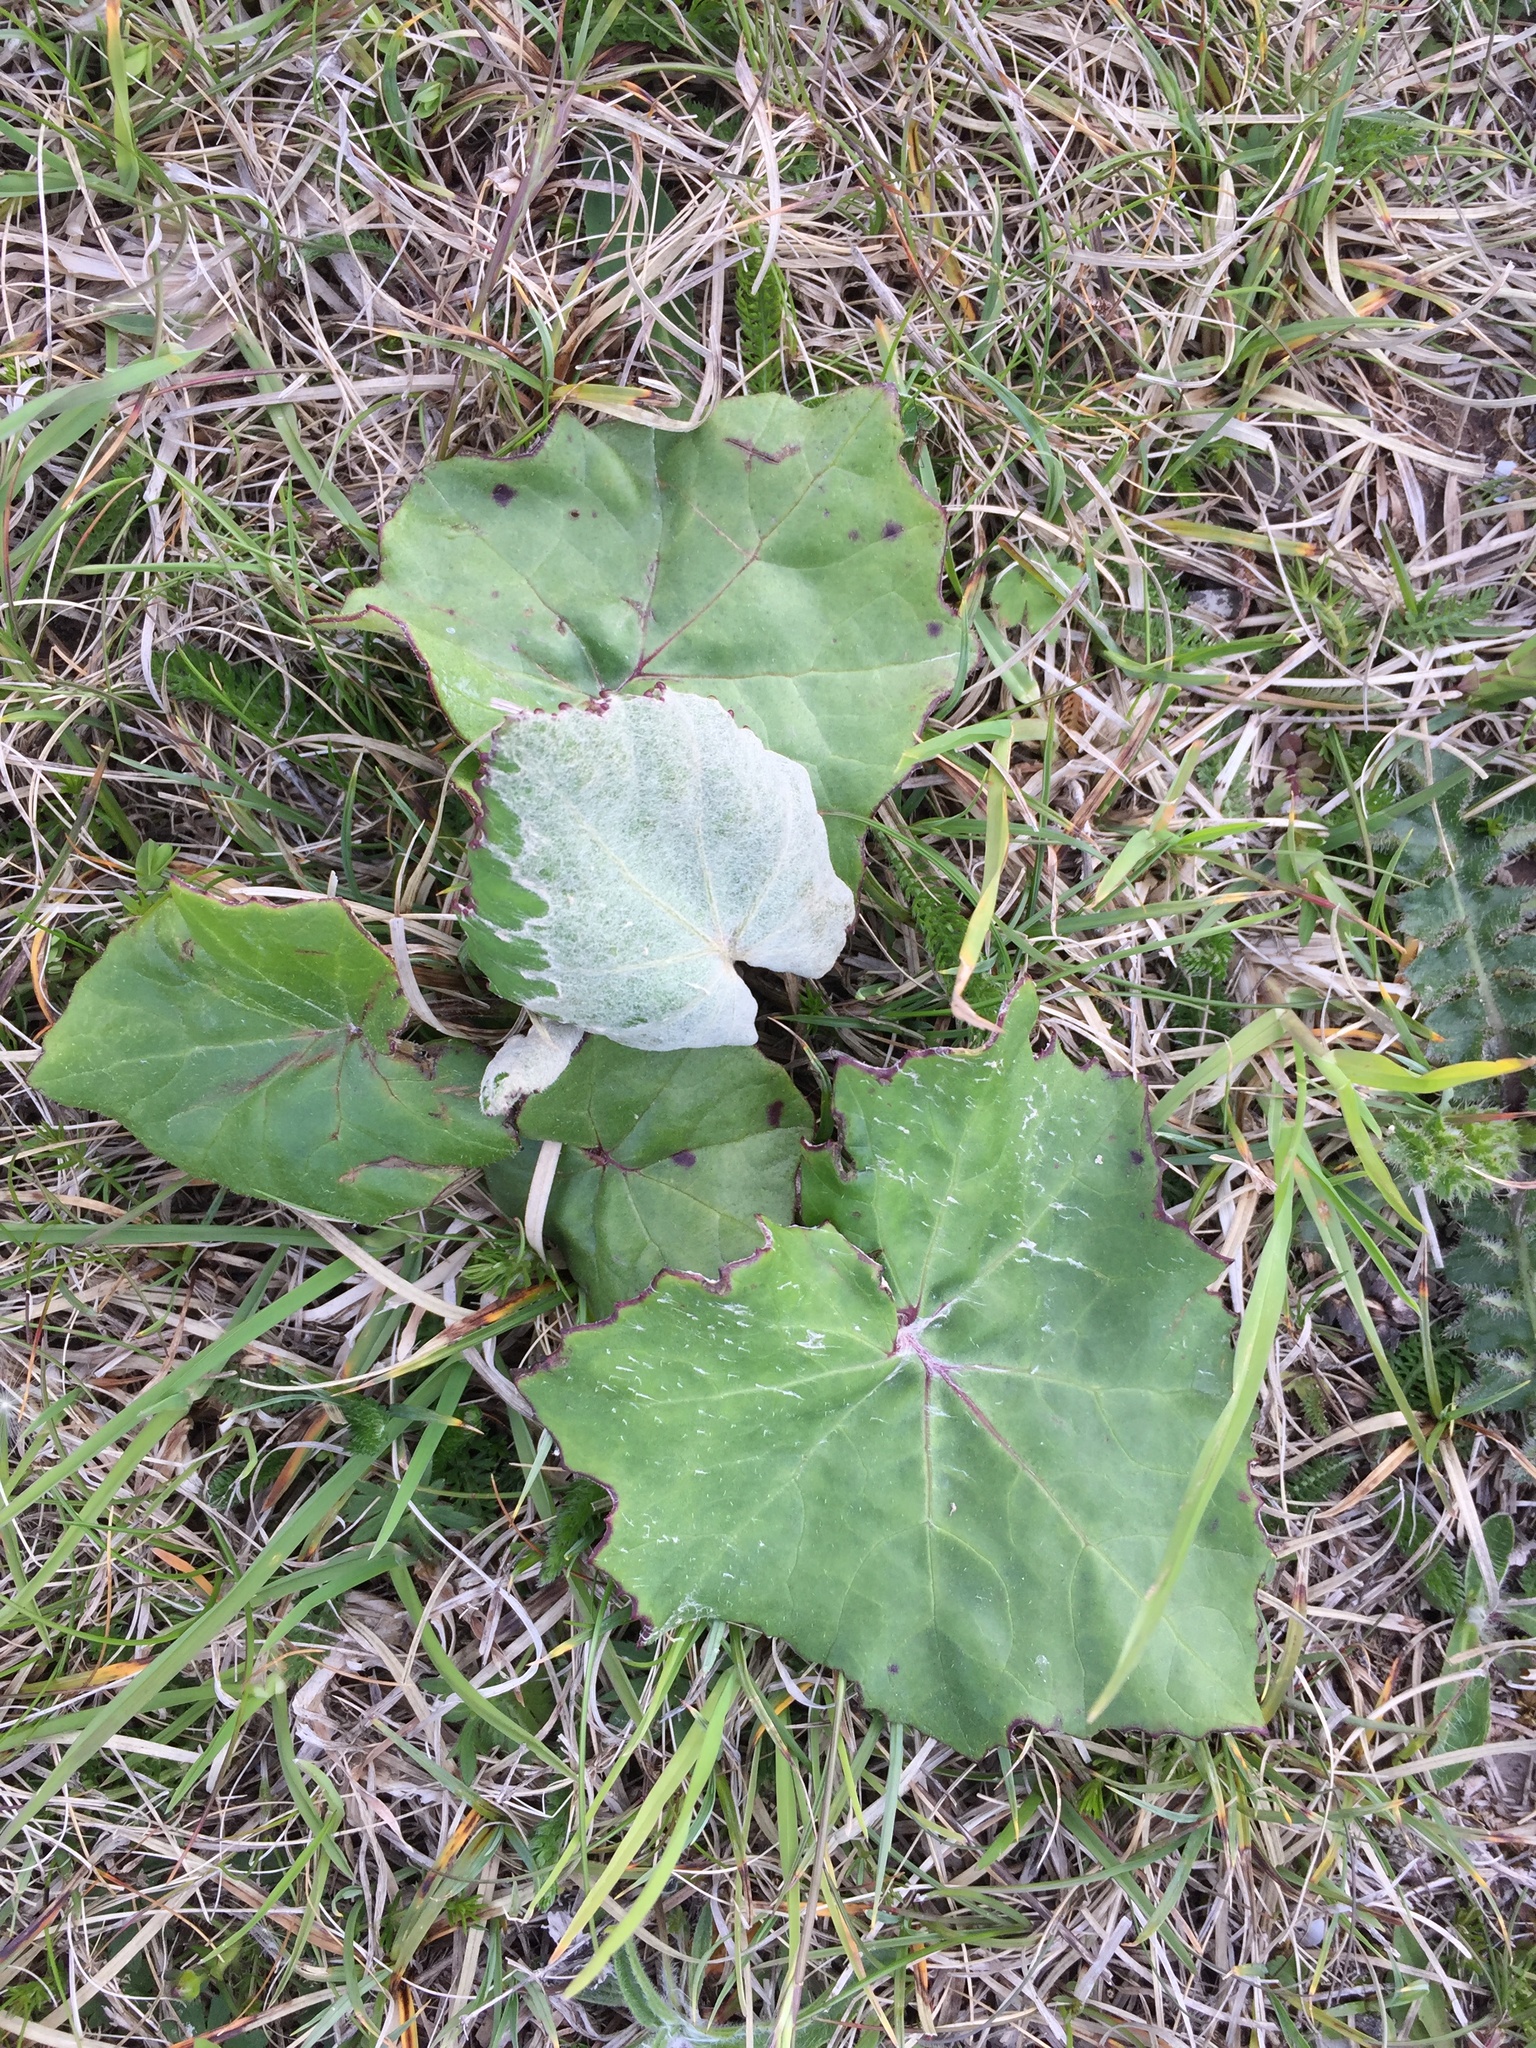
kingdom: Plantae
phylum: Tracheophyta
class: Magnoliopsida
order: Asterales
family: Asteraceae
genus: Tussilago
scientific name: Tussilago farfara
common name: Coltsfoot
